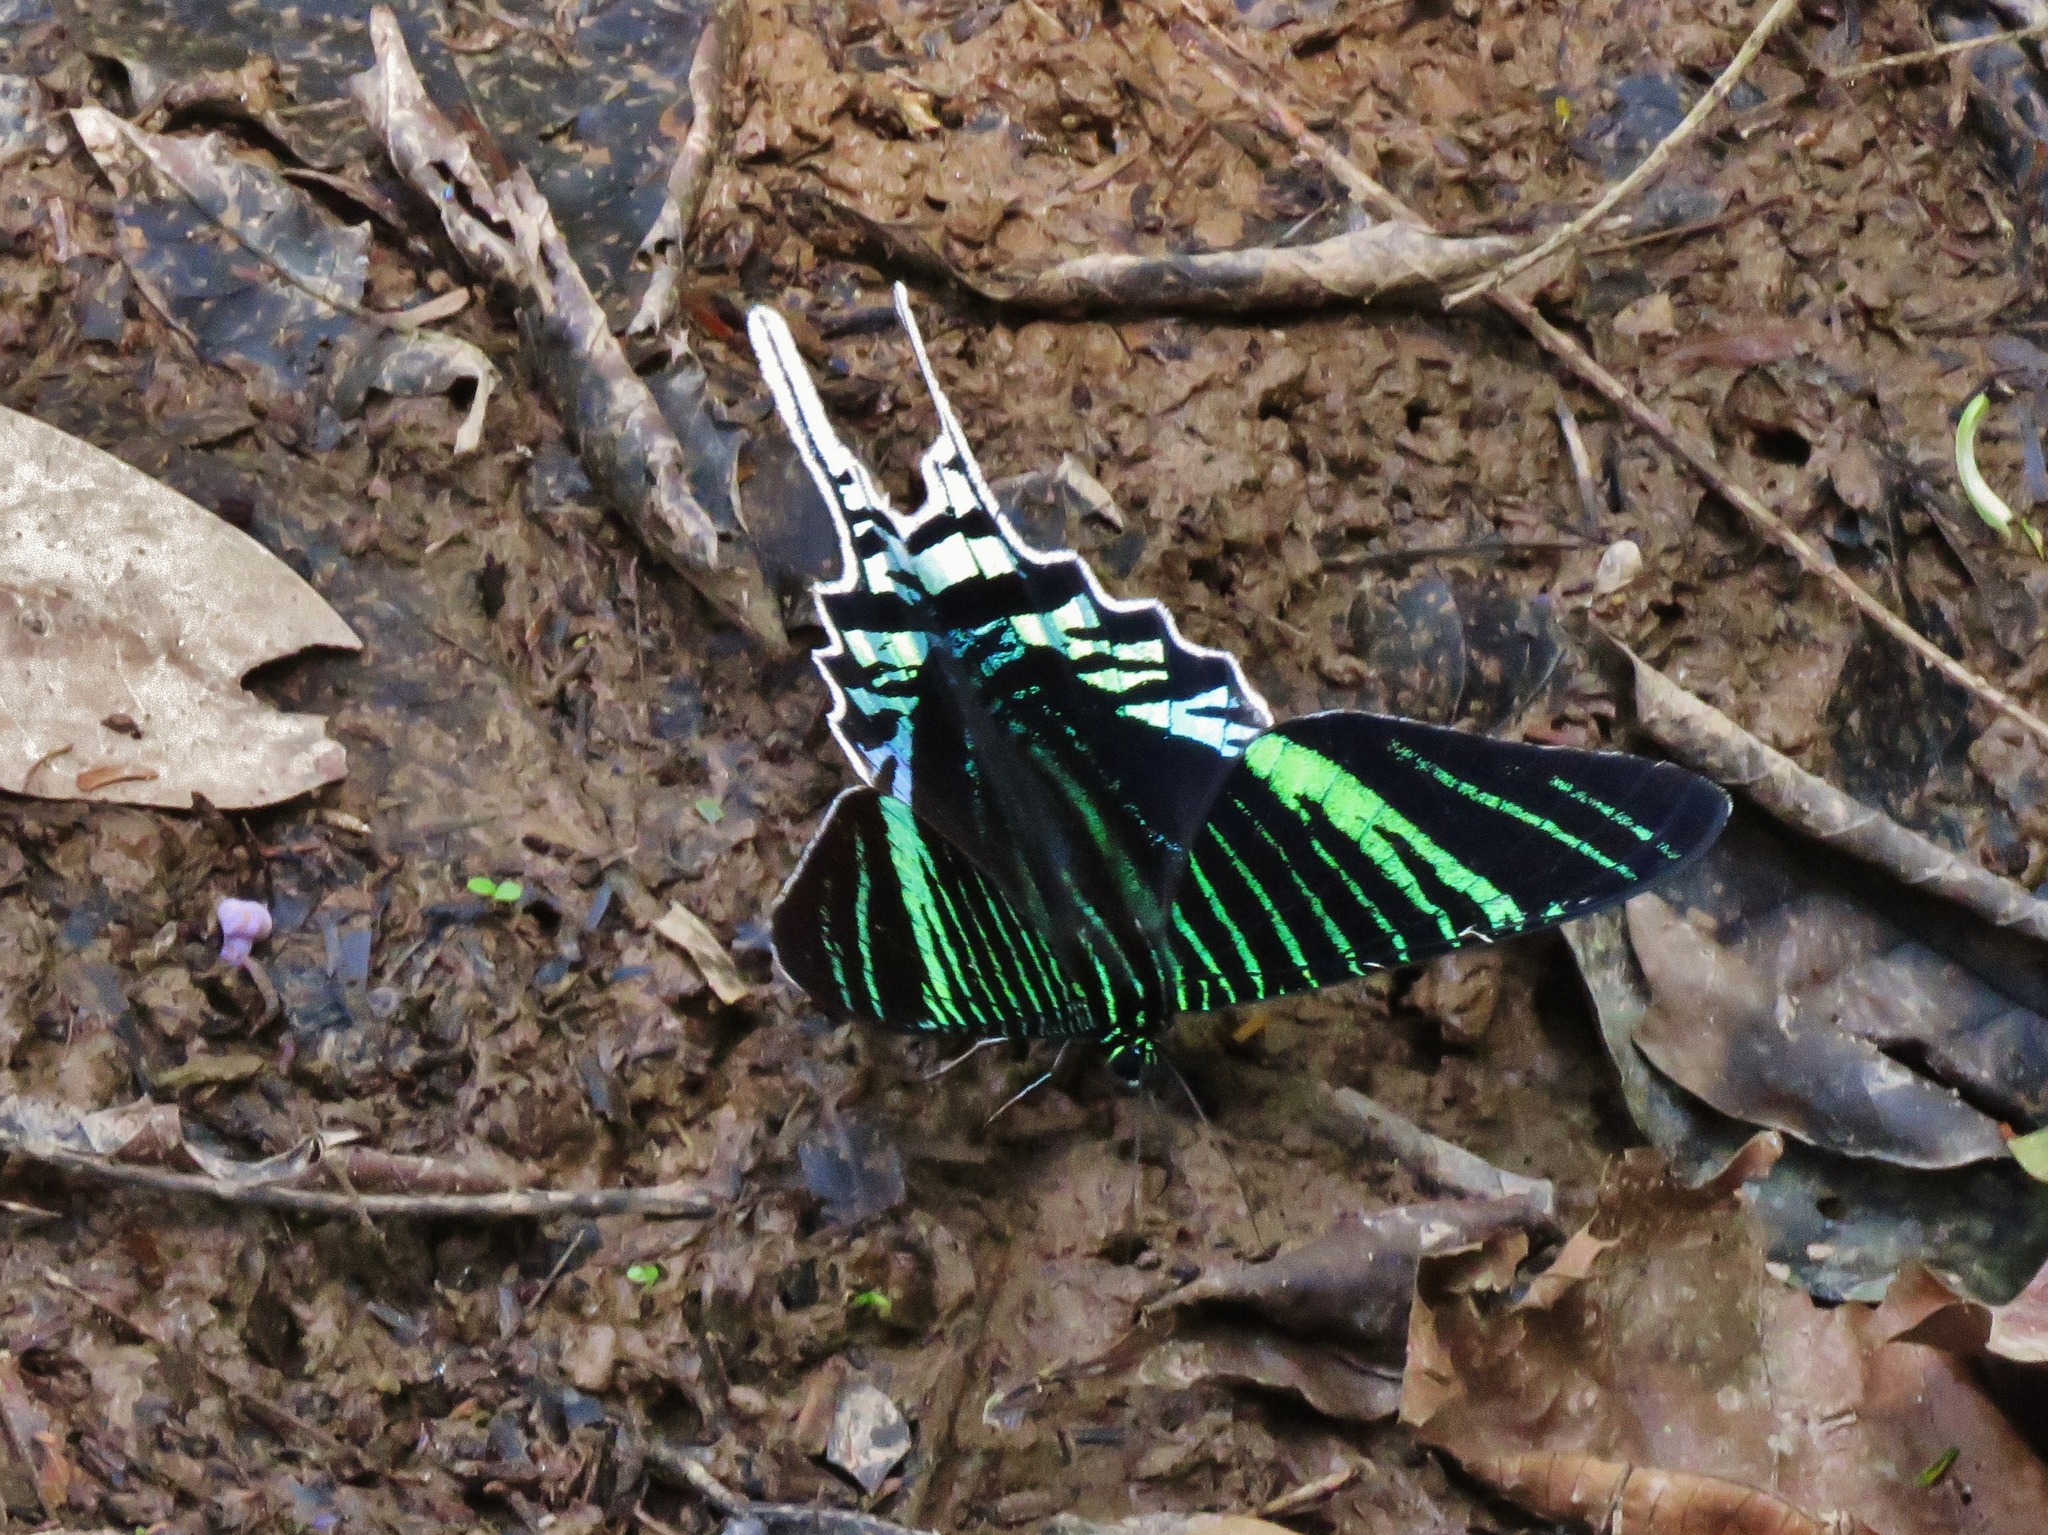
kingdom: Animalia
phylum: Arthropoda
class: Insecta
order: Lepidoptera
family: Uraniidae
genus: Urania
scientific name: Urania leilus
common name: Peacock moth
